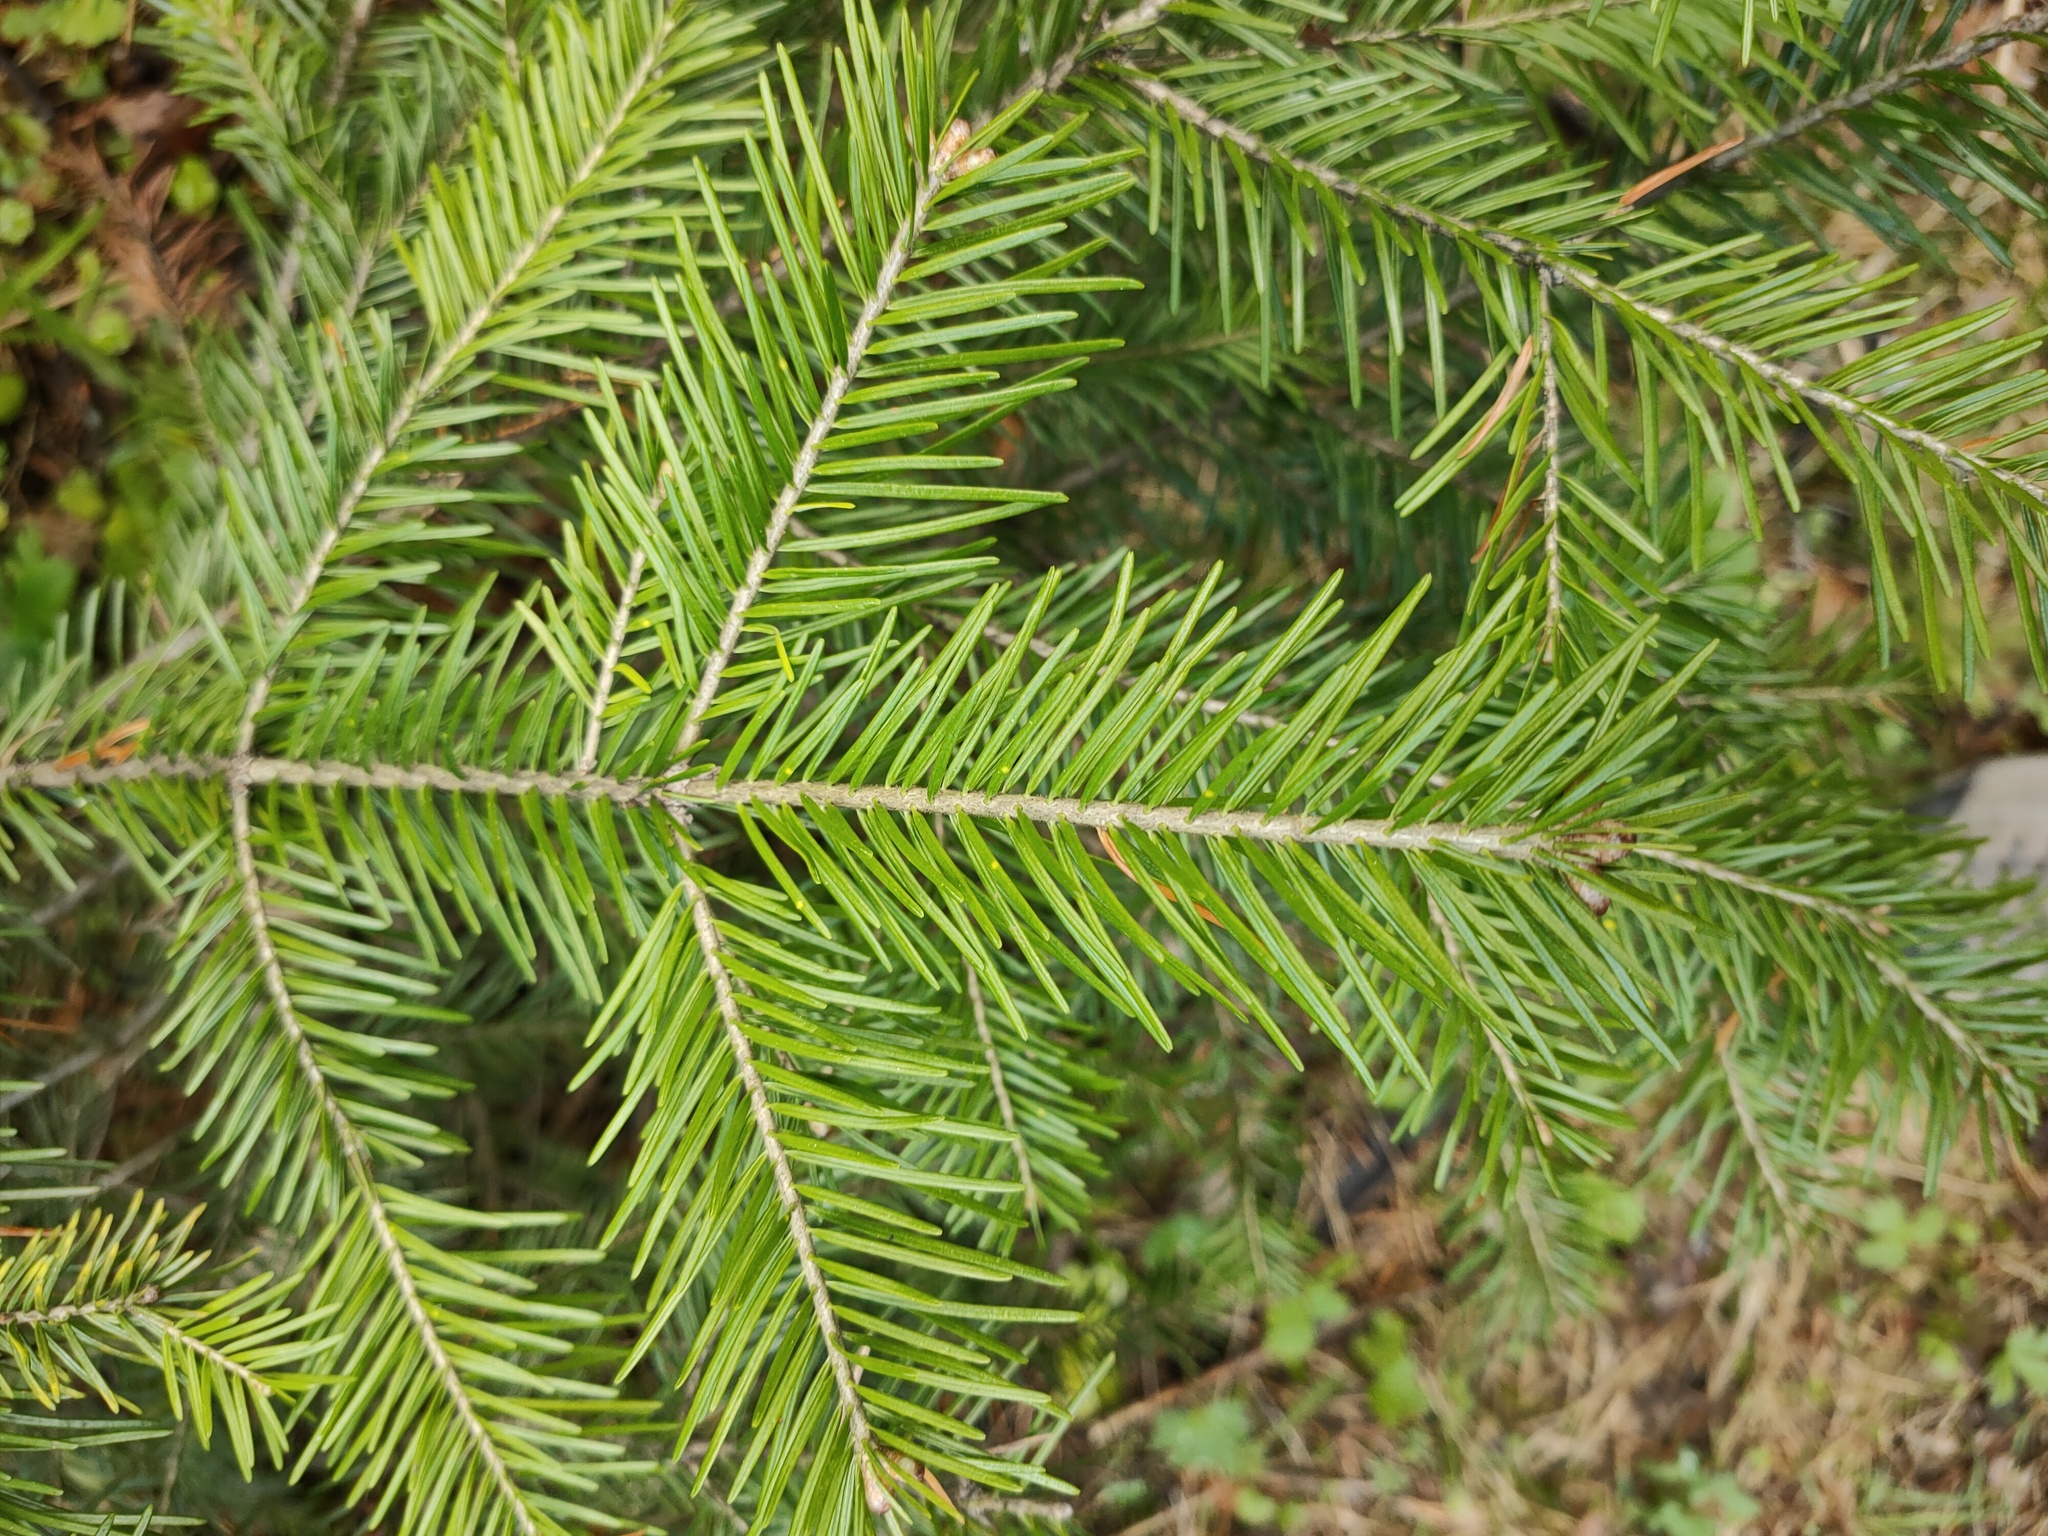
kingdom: Plantae
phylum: Tracheophyta
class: Pinopsida
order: Pinales
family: Pinaceae
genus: Abies
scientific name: Abies sibirica
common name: Siberian fir
